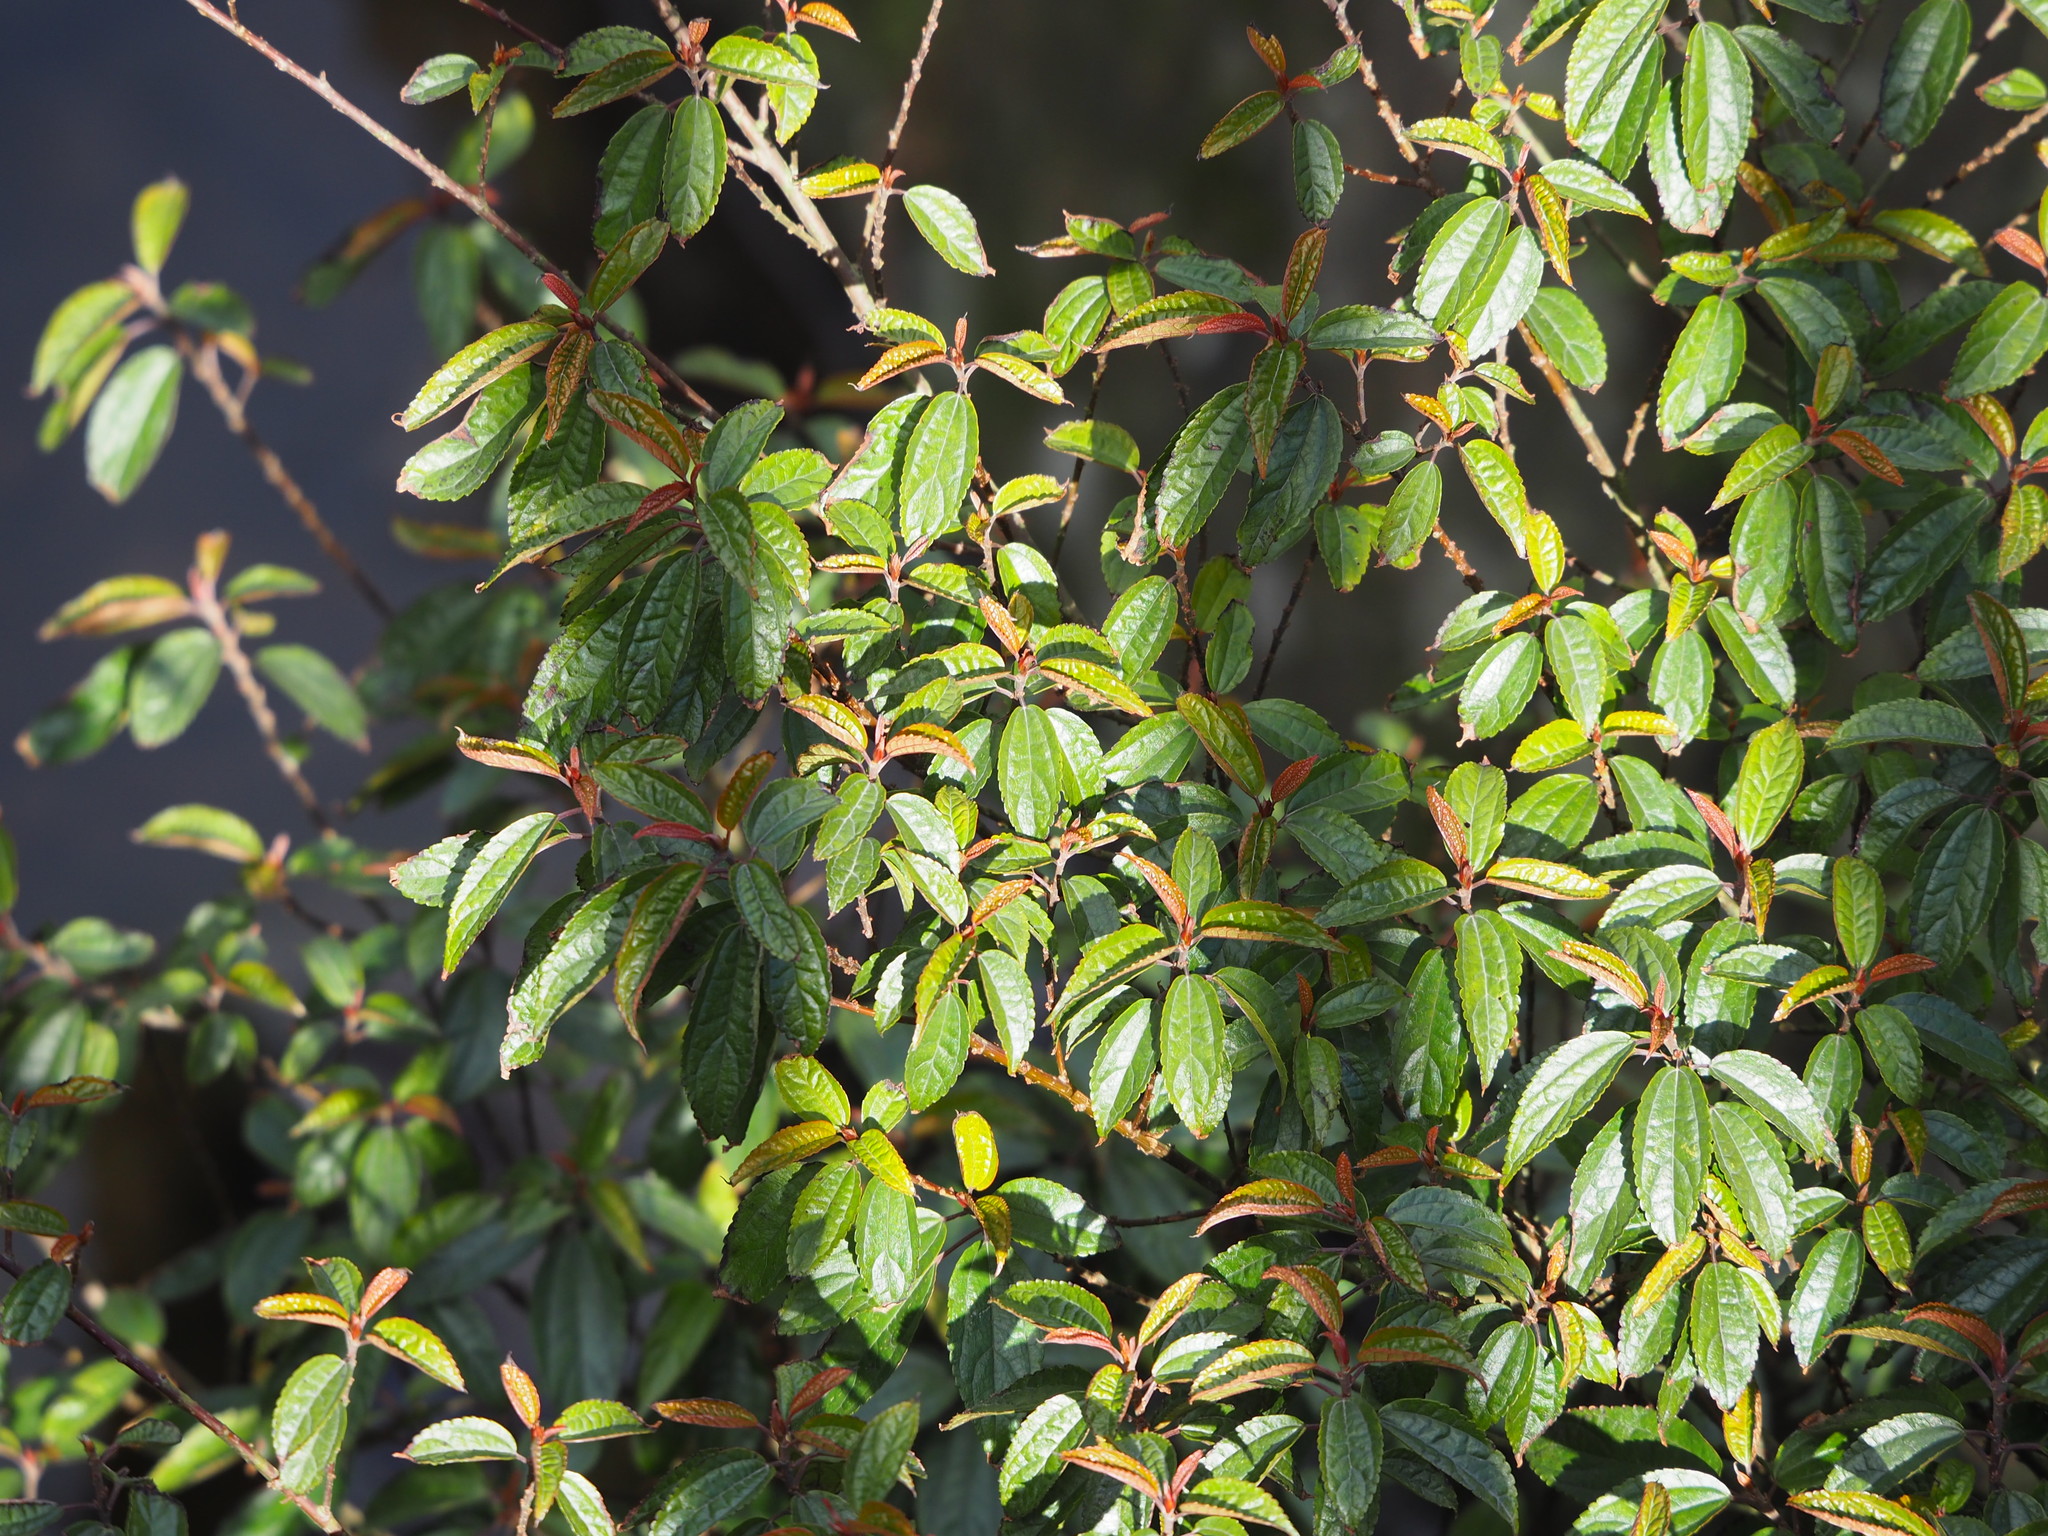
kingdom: Plantae
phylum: Tracheophyta
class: Magnoliopsida
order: Rosales
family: Urticaceae
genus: Oreocnide
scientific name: Oreocnide pedunculata
